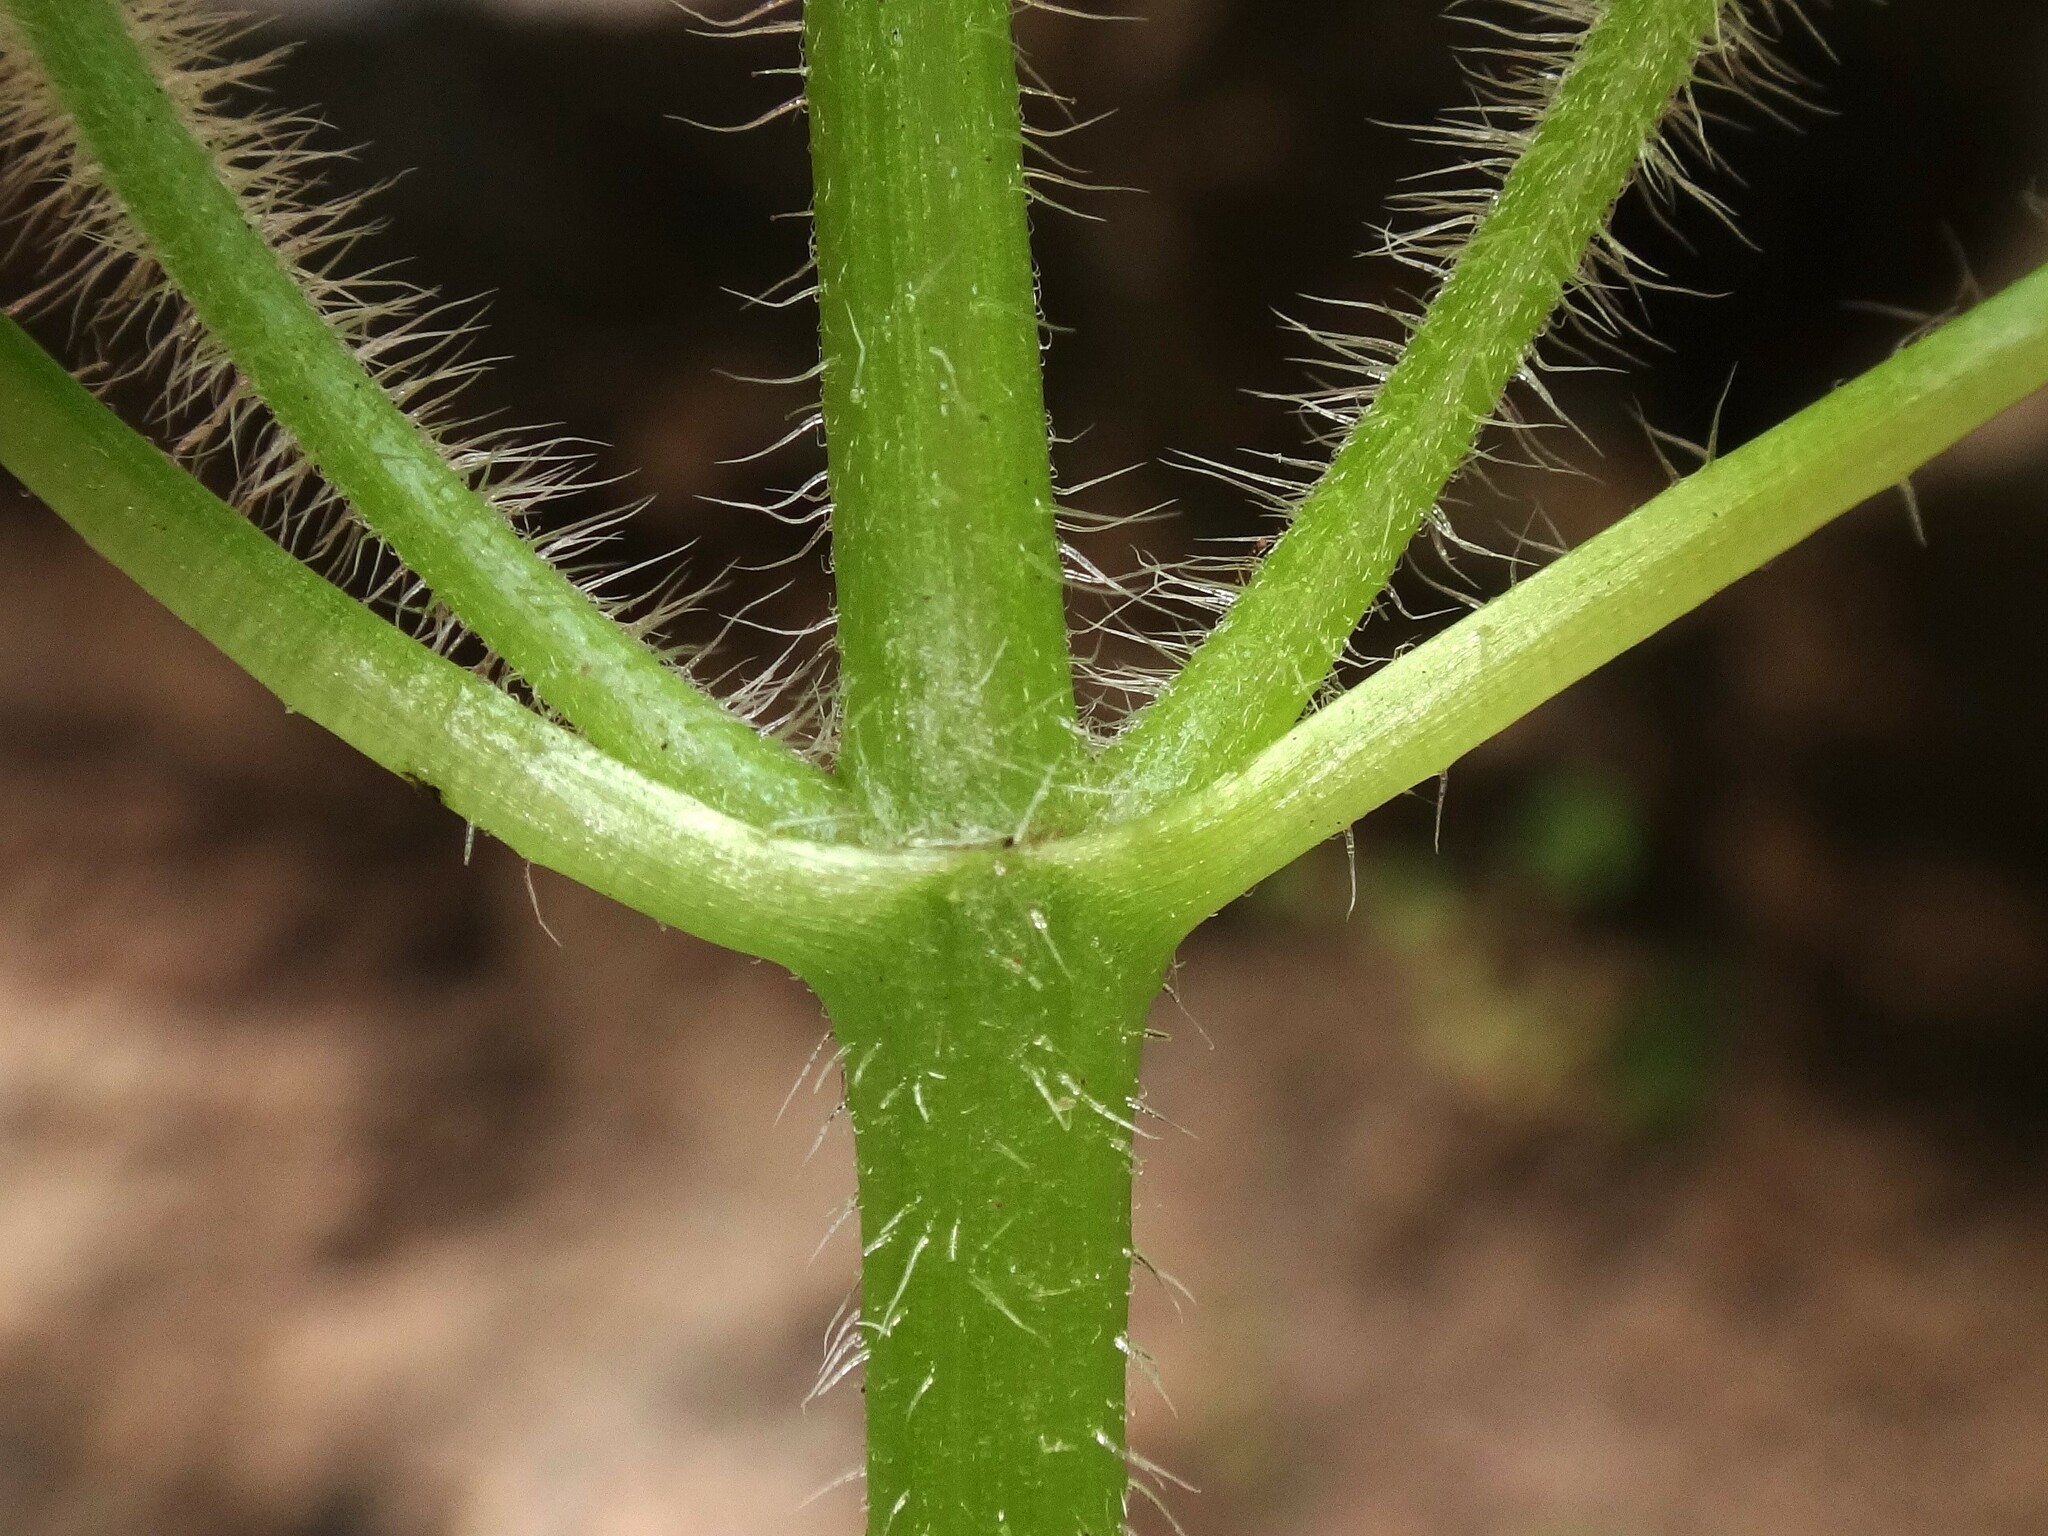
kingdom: Plantae
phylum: Tracheophyta
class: Magnoliopsida
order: Asterales
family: Asteraceae
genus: Galinsoga
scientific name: Galinsoga quadriradiata
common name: Shaggy soldier
